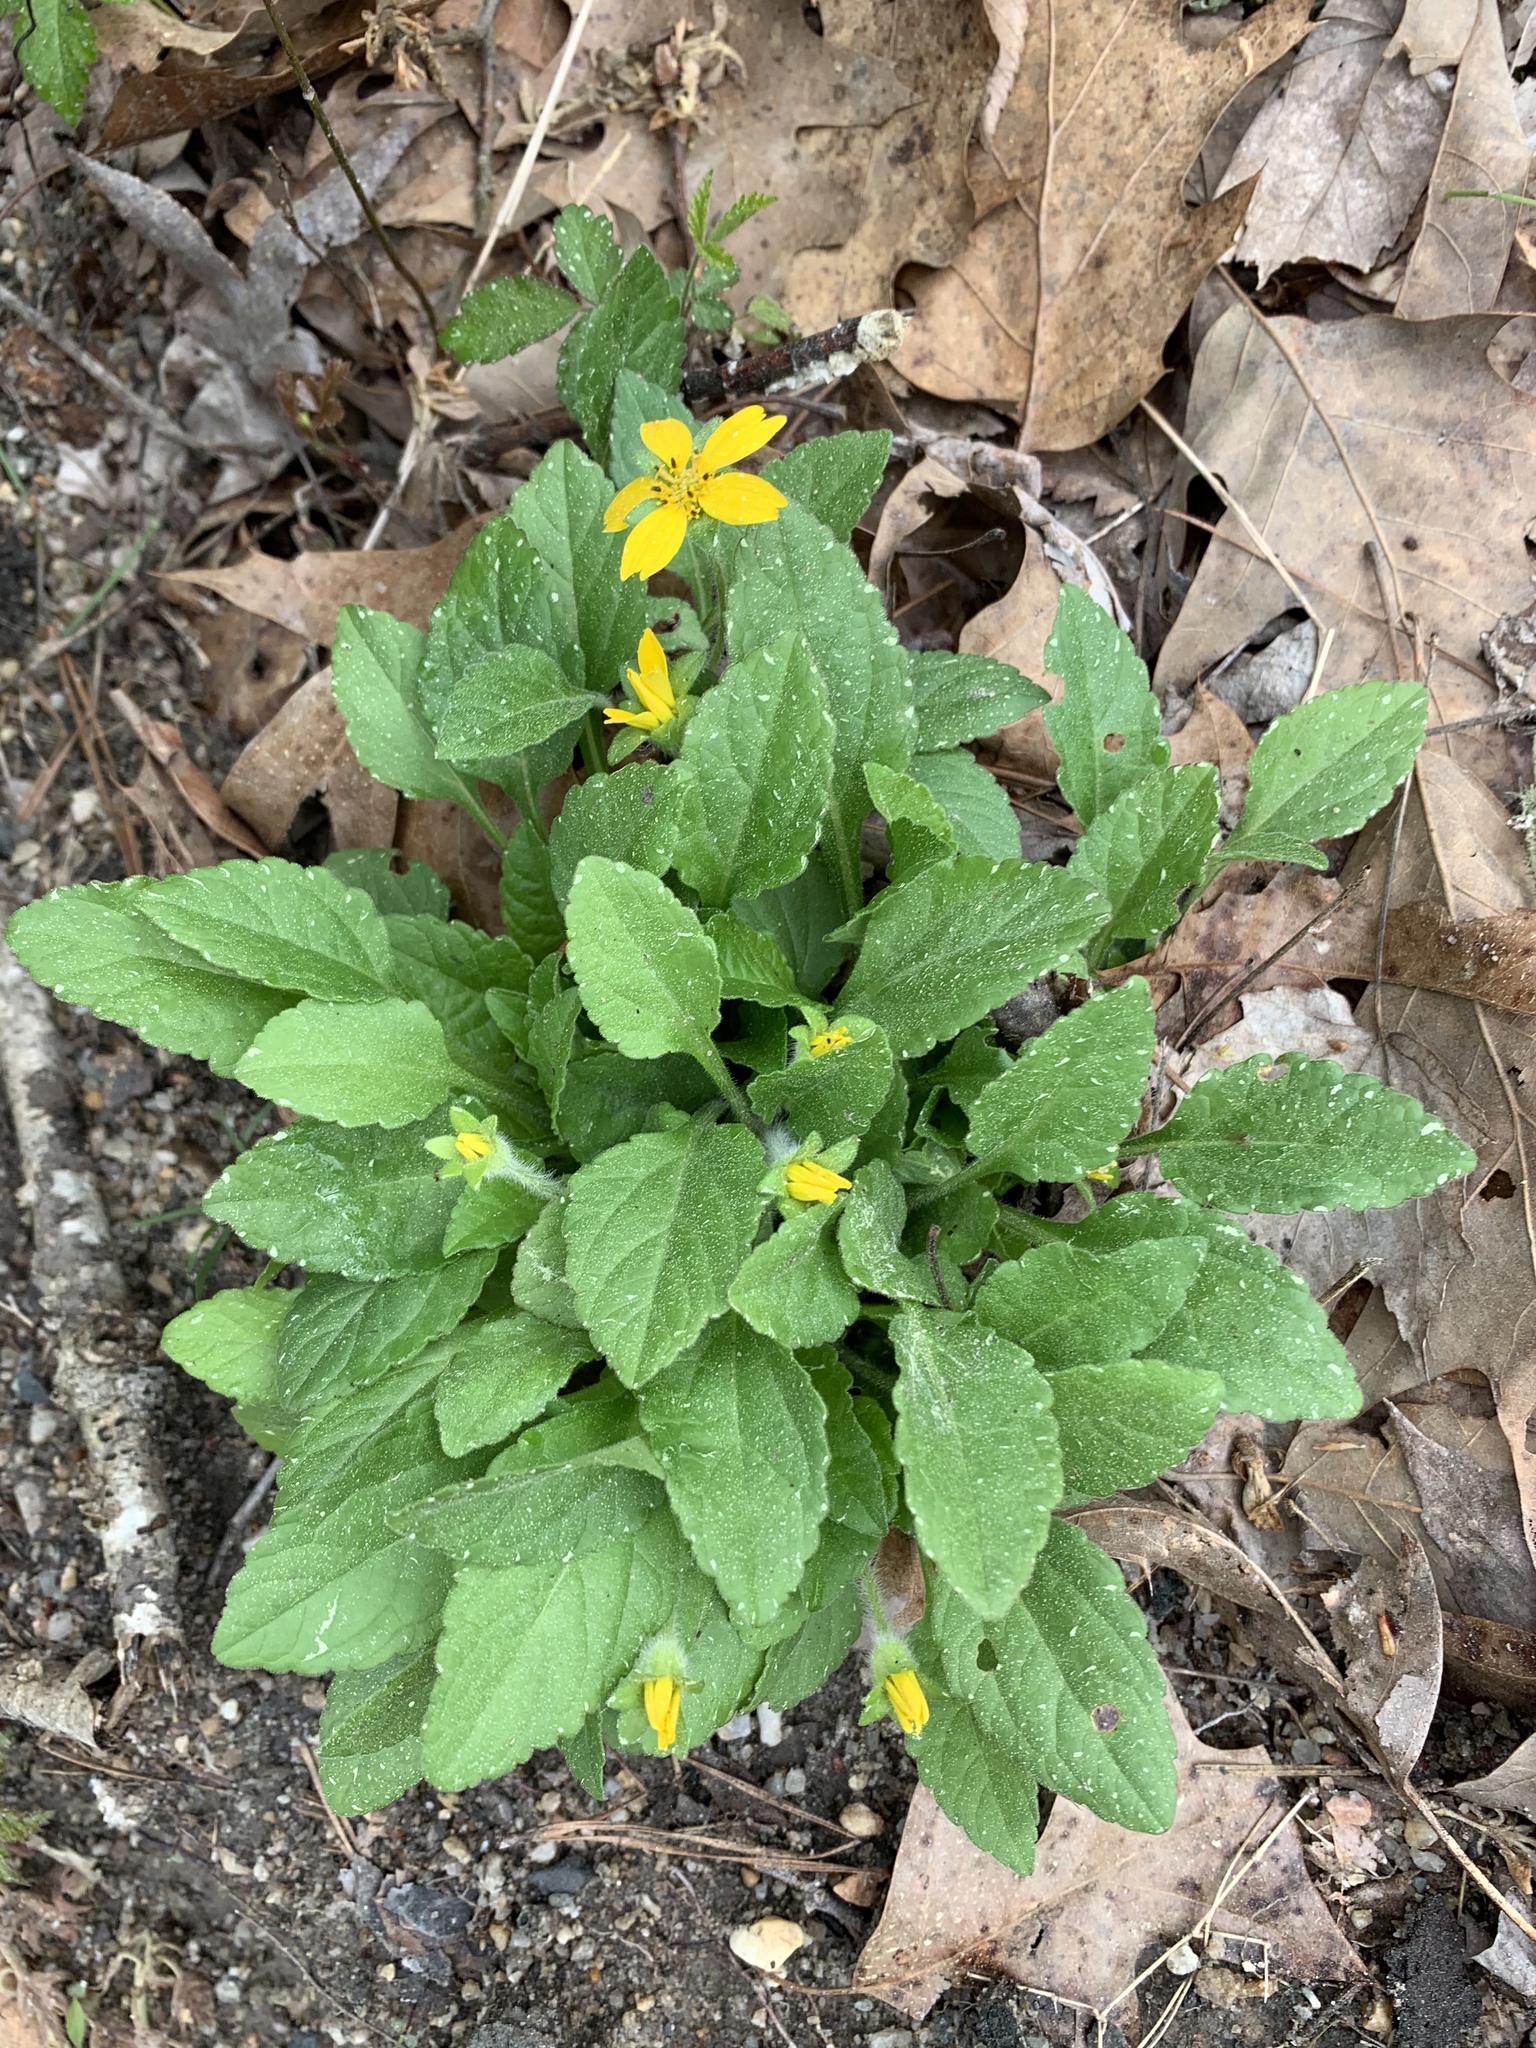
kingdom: Plantae
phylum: Tracheophyta
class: Magnoliopsida
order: Asterales
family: Asteraceae
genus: Chrysogonum
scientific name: Chrysogonum virginianum
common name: Golden-knee
